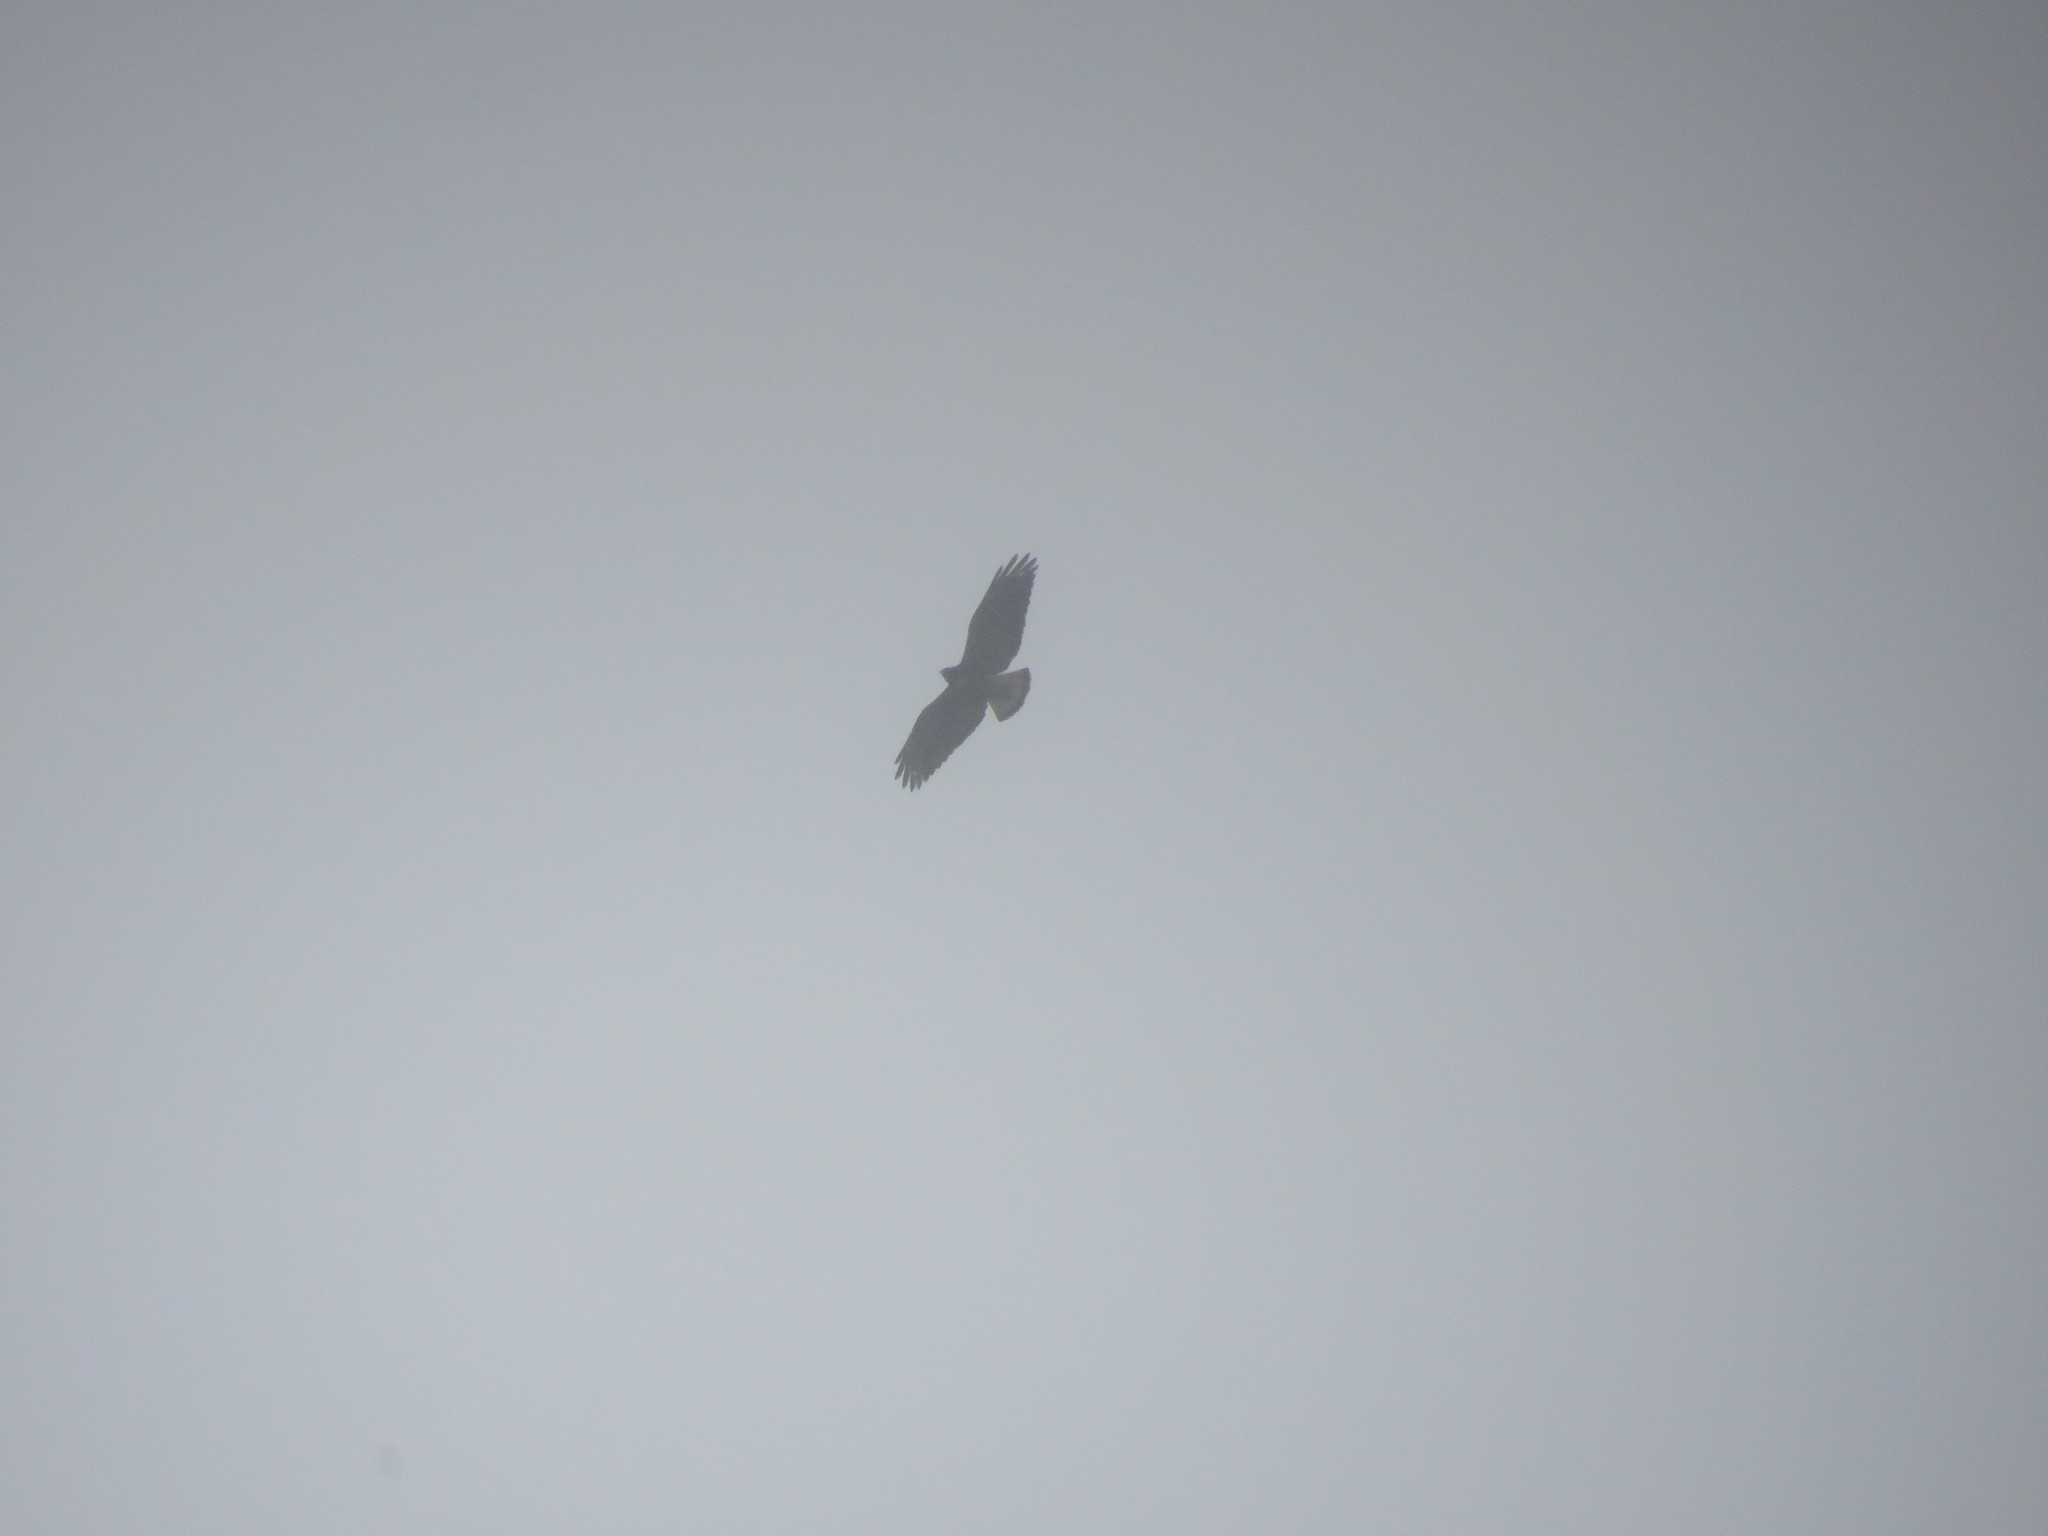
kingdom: Animalia
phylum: Chordata
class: Aves
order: Accipitriformes
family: Accipitridae
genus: Buteo
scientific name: Buteo albicaudatus
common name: White-tailed hawk
